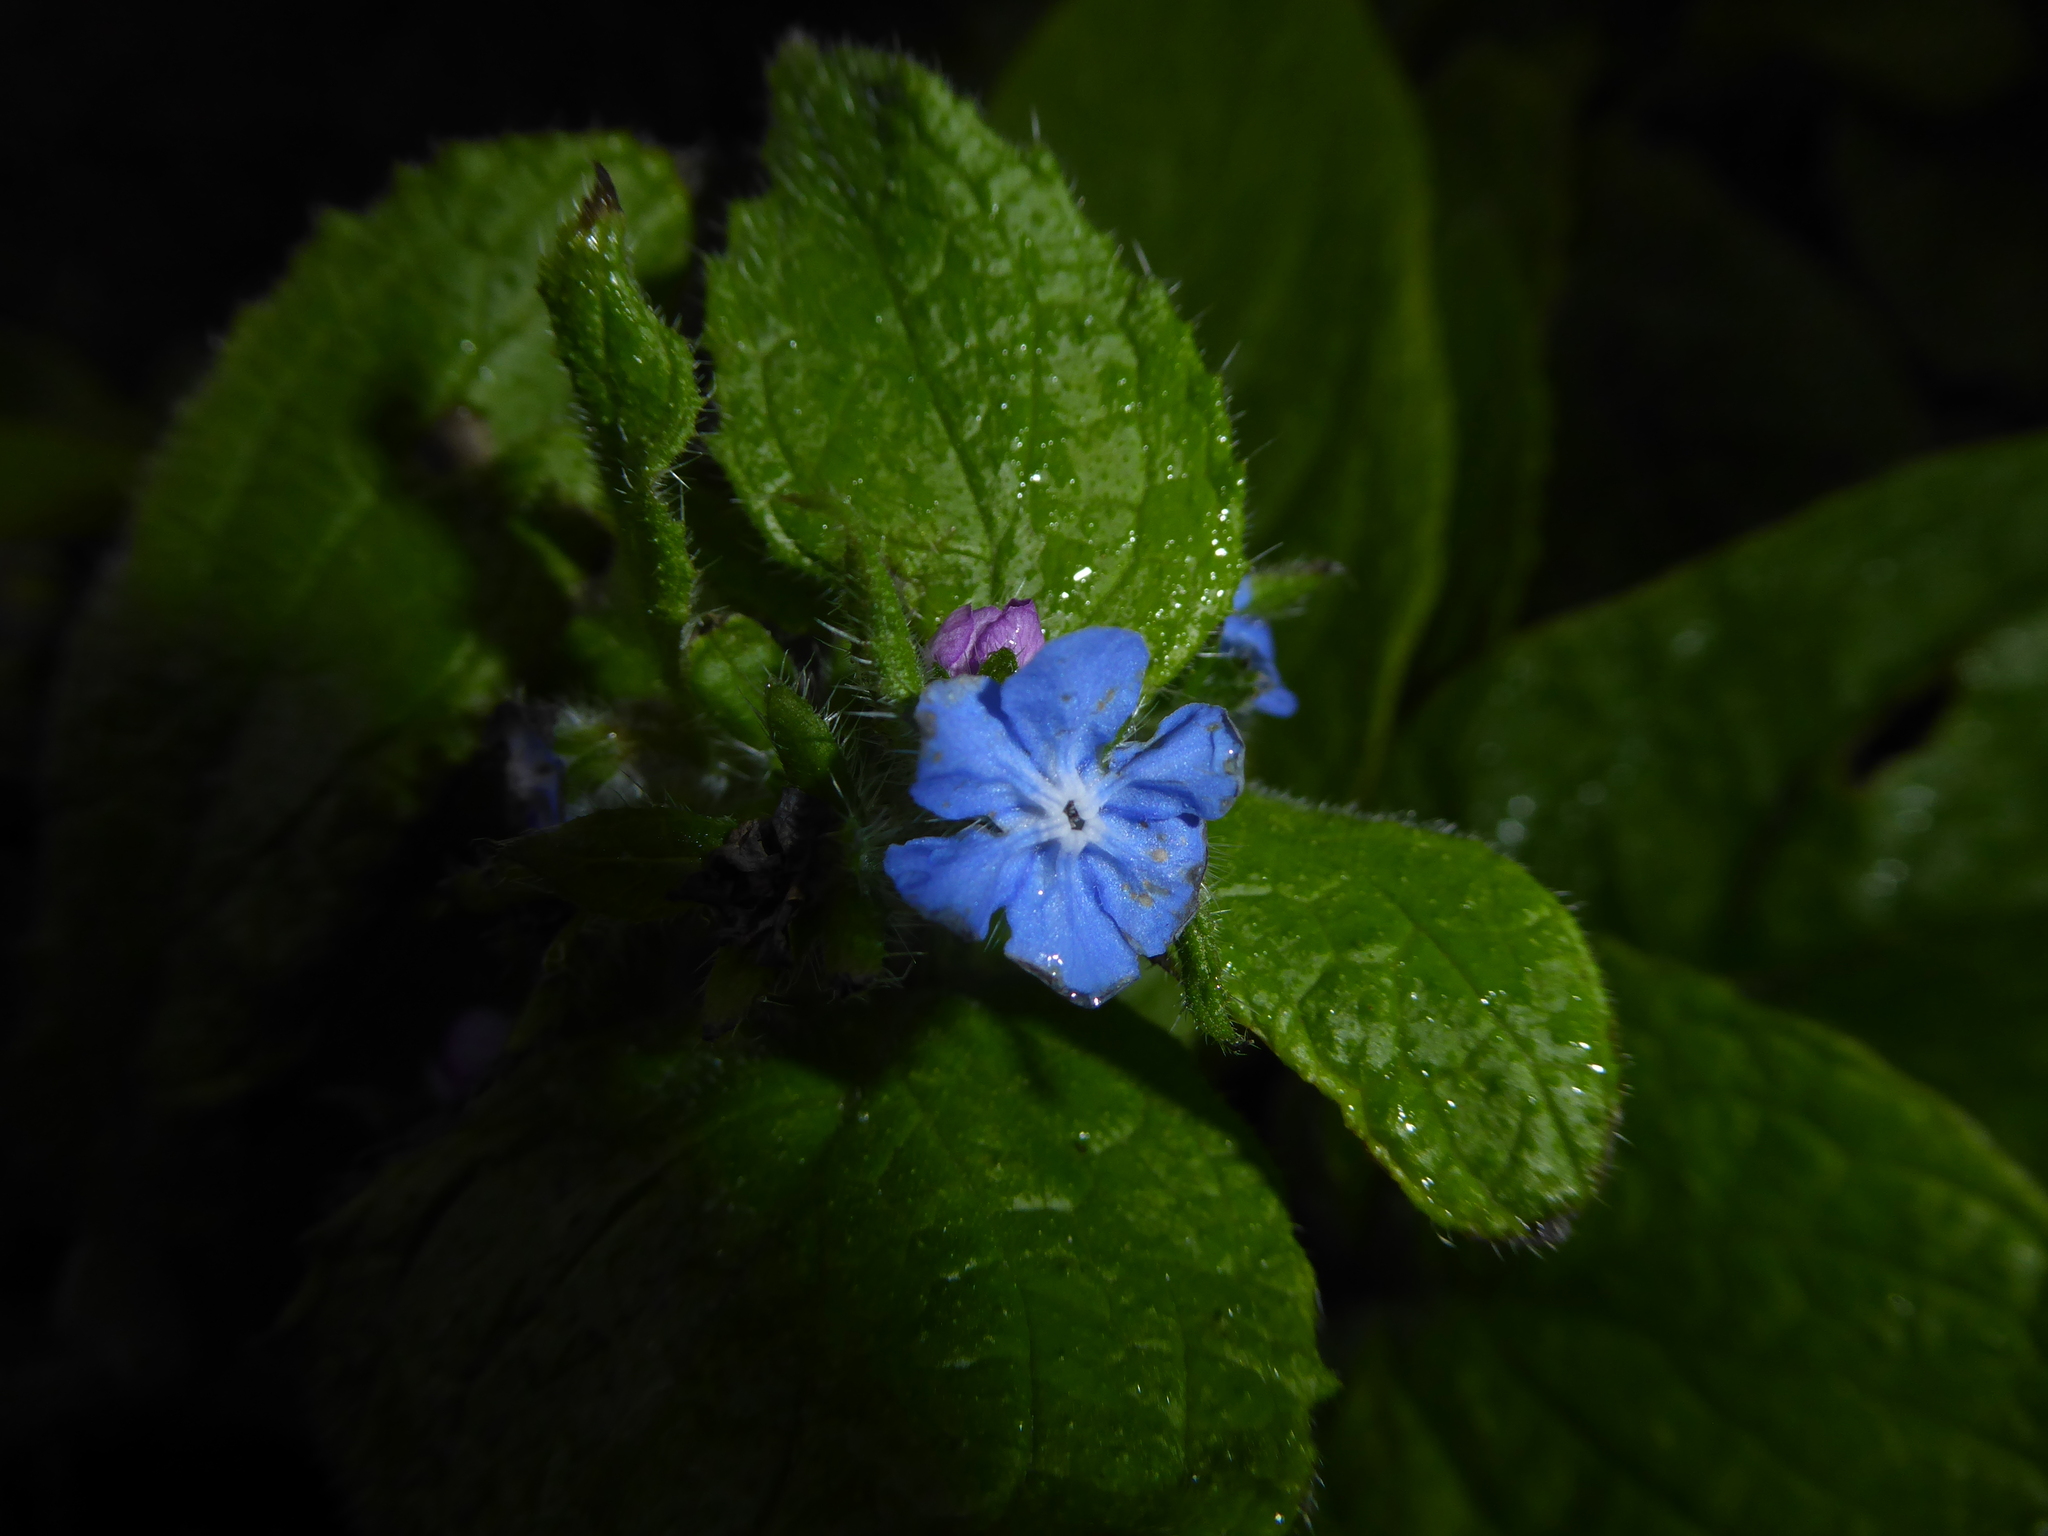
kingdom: Plantae
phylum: Tracheophyta
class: Magnoliopsida
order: Boraginales
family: Boraginaceae
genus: Pentaglottis
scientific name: Pentaglottis sempervirens
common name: Green alkanet
